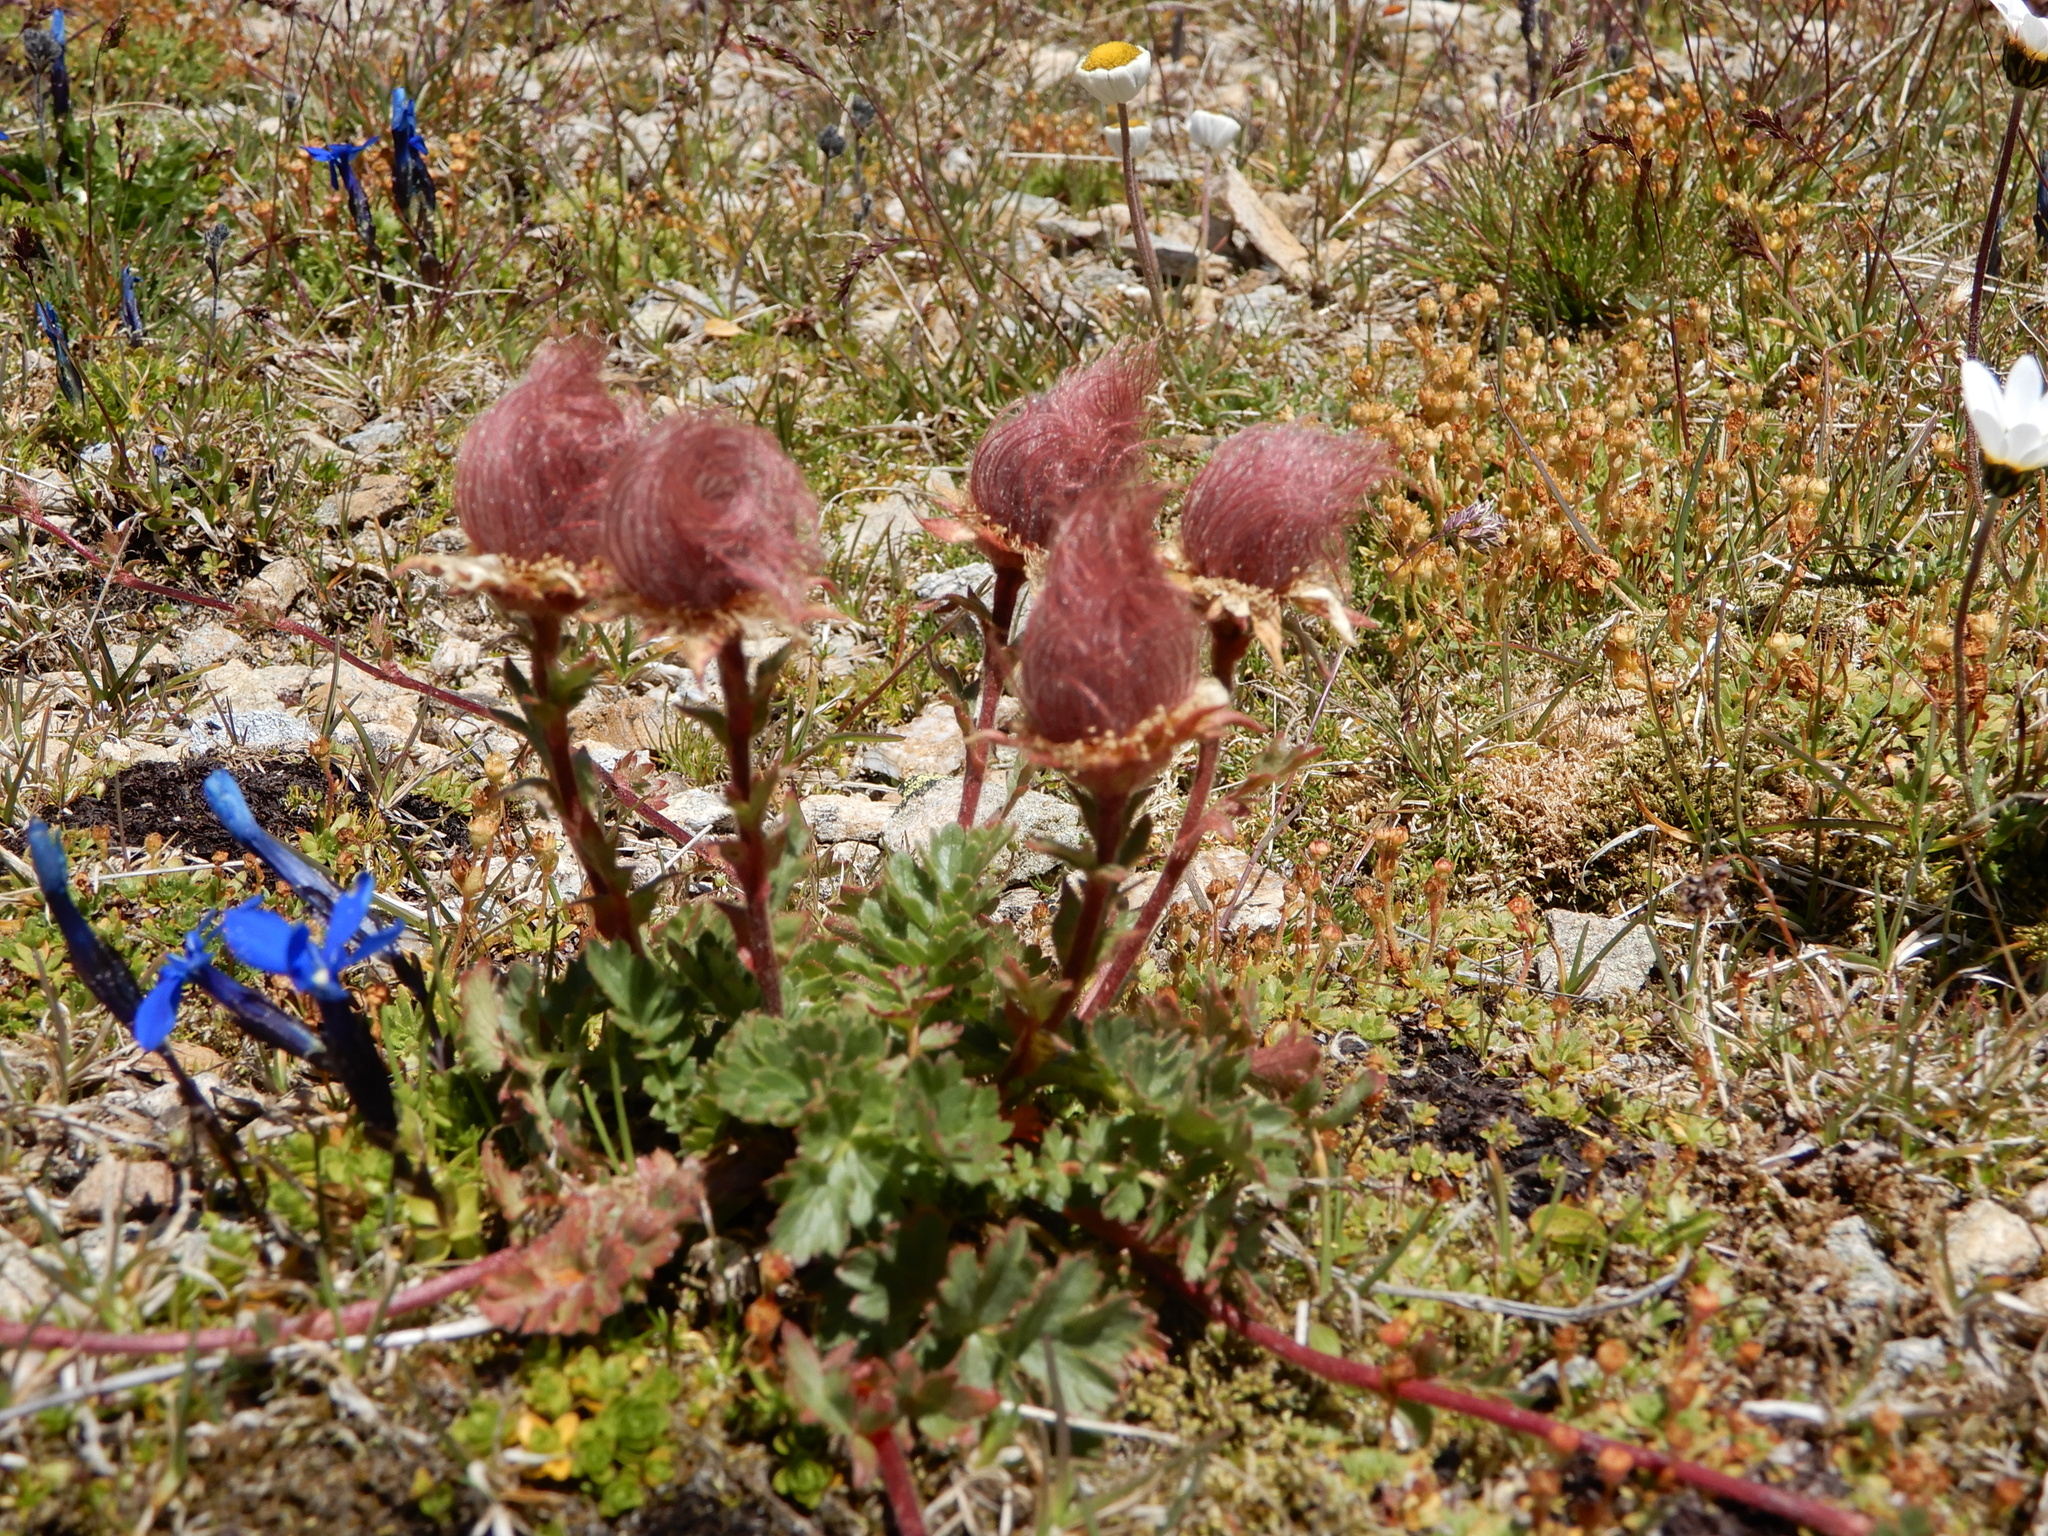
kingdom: Plantae
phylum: Tracheophyta
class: Magnoliopsida
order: Rosales
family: Rosaceae
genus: Geum
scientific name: Geum reptans
